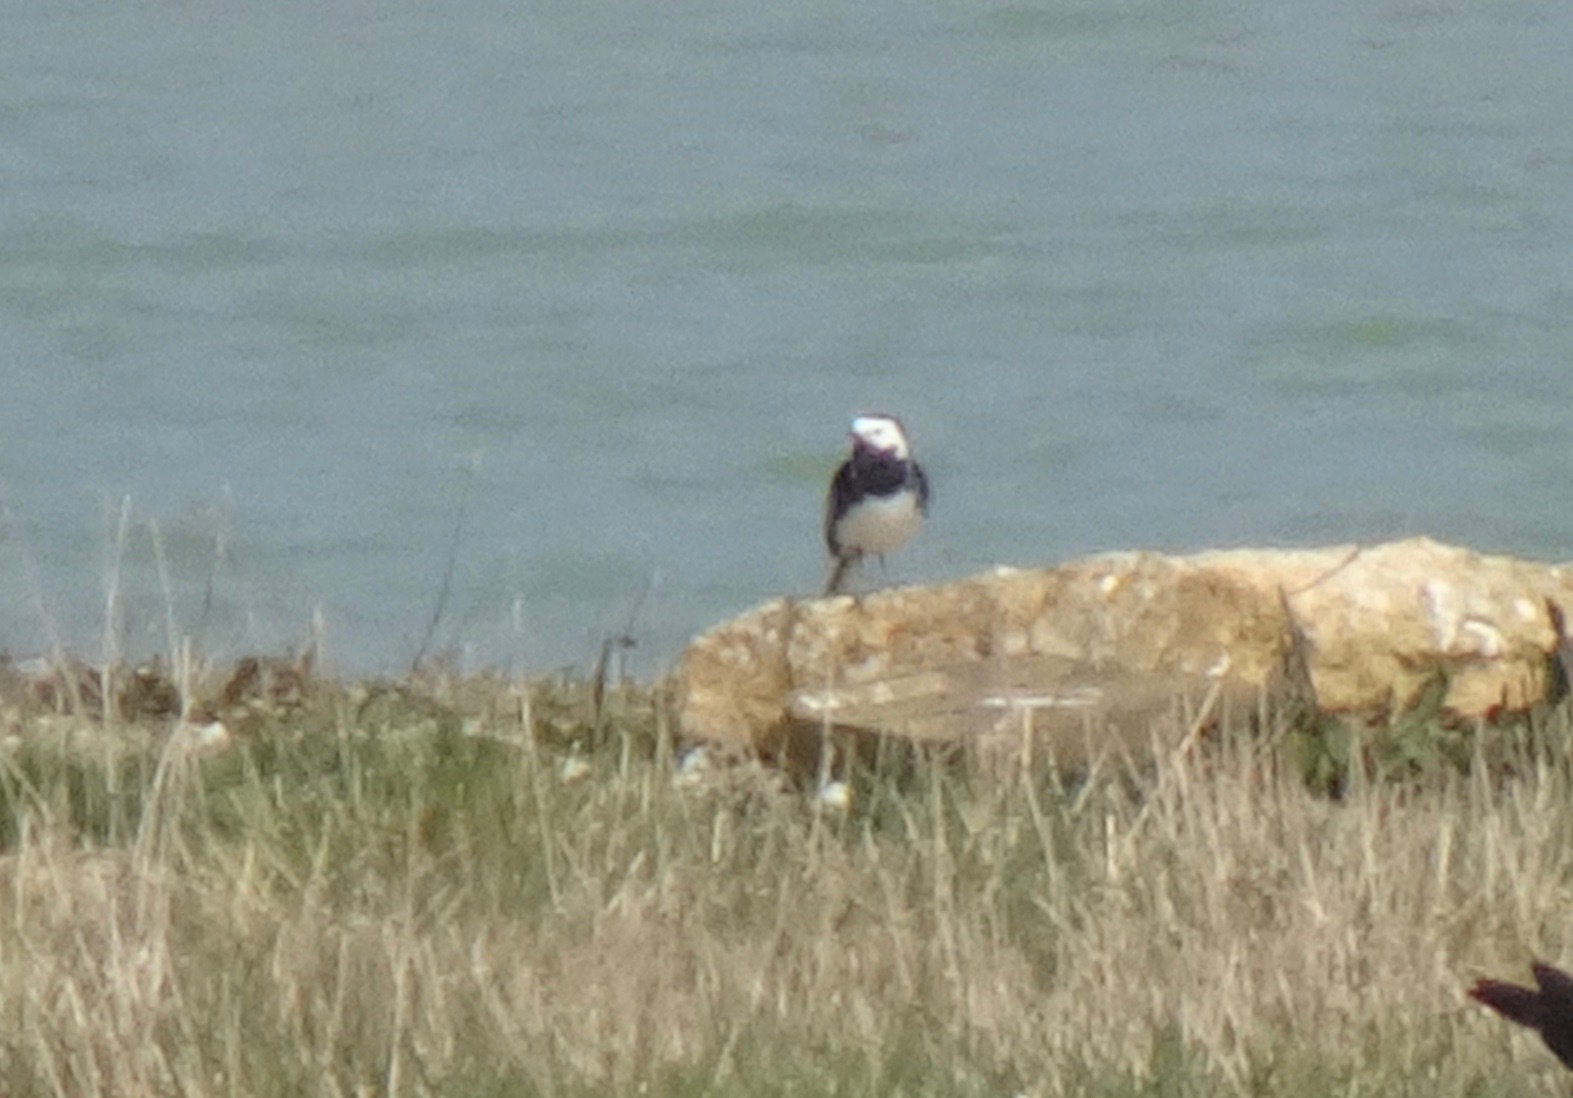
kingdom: Animalia
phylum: Chordata
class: Aves
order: Passeriformes
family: Motacillidae
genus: Motacilla
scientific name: Motacilla alba
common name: White wagtail
